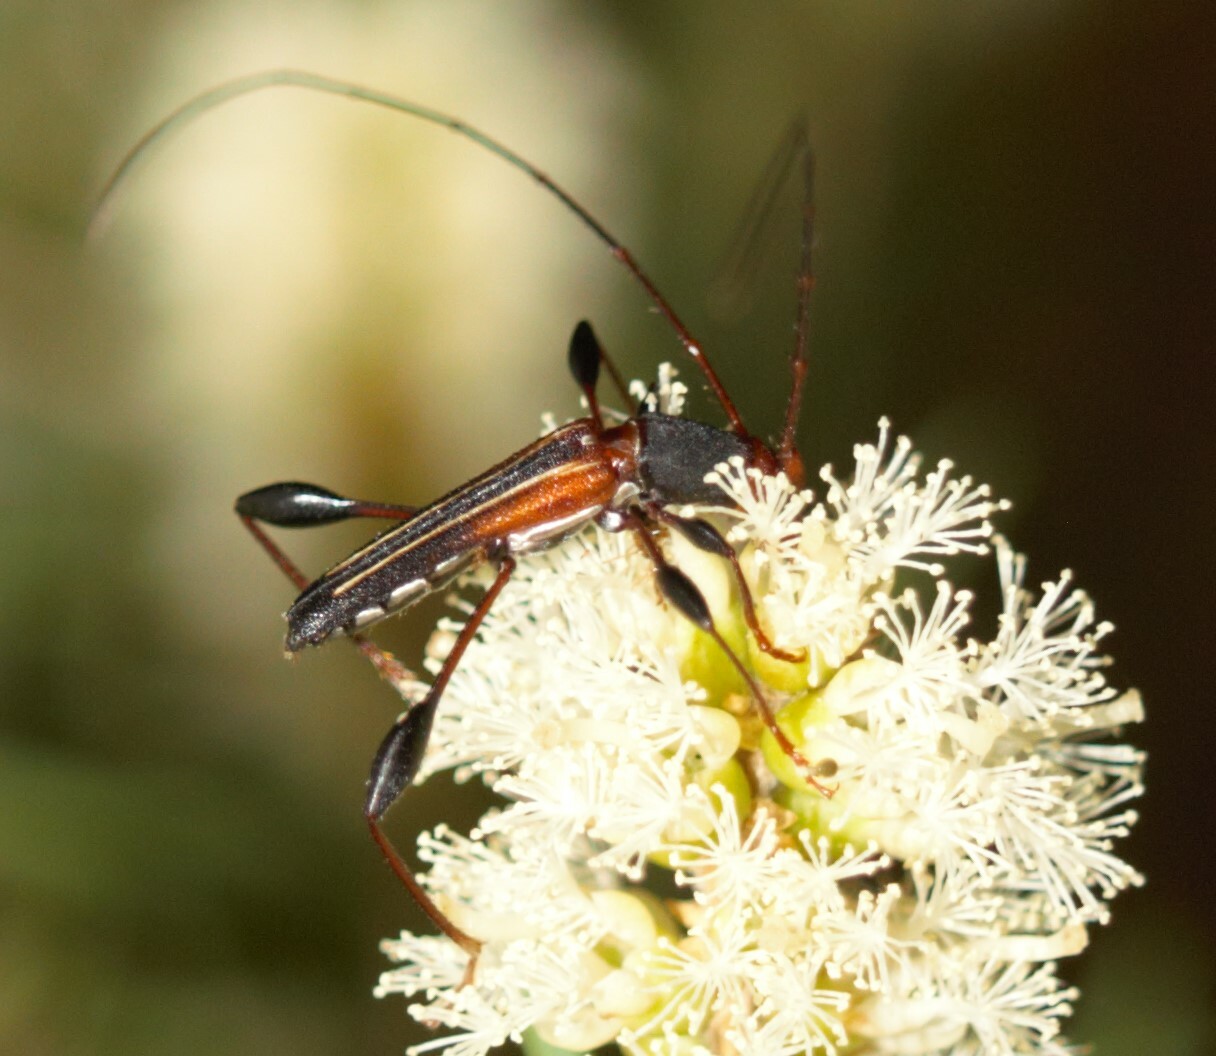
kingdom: Animalia
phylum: Arthropoda
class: Insecta
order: Coleoptera
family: Cerambycidae
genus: Amphirhoe
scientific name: Amphirhoe sloanei
